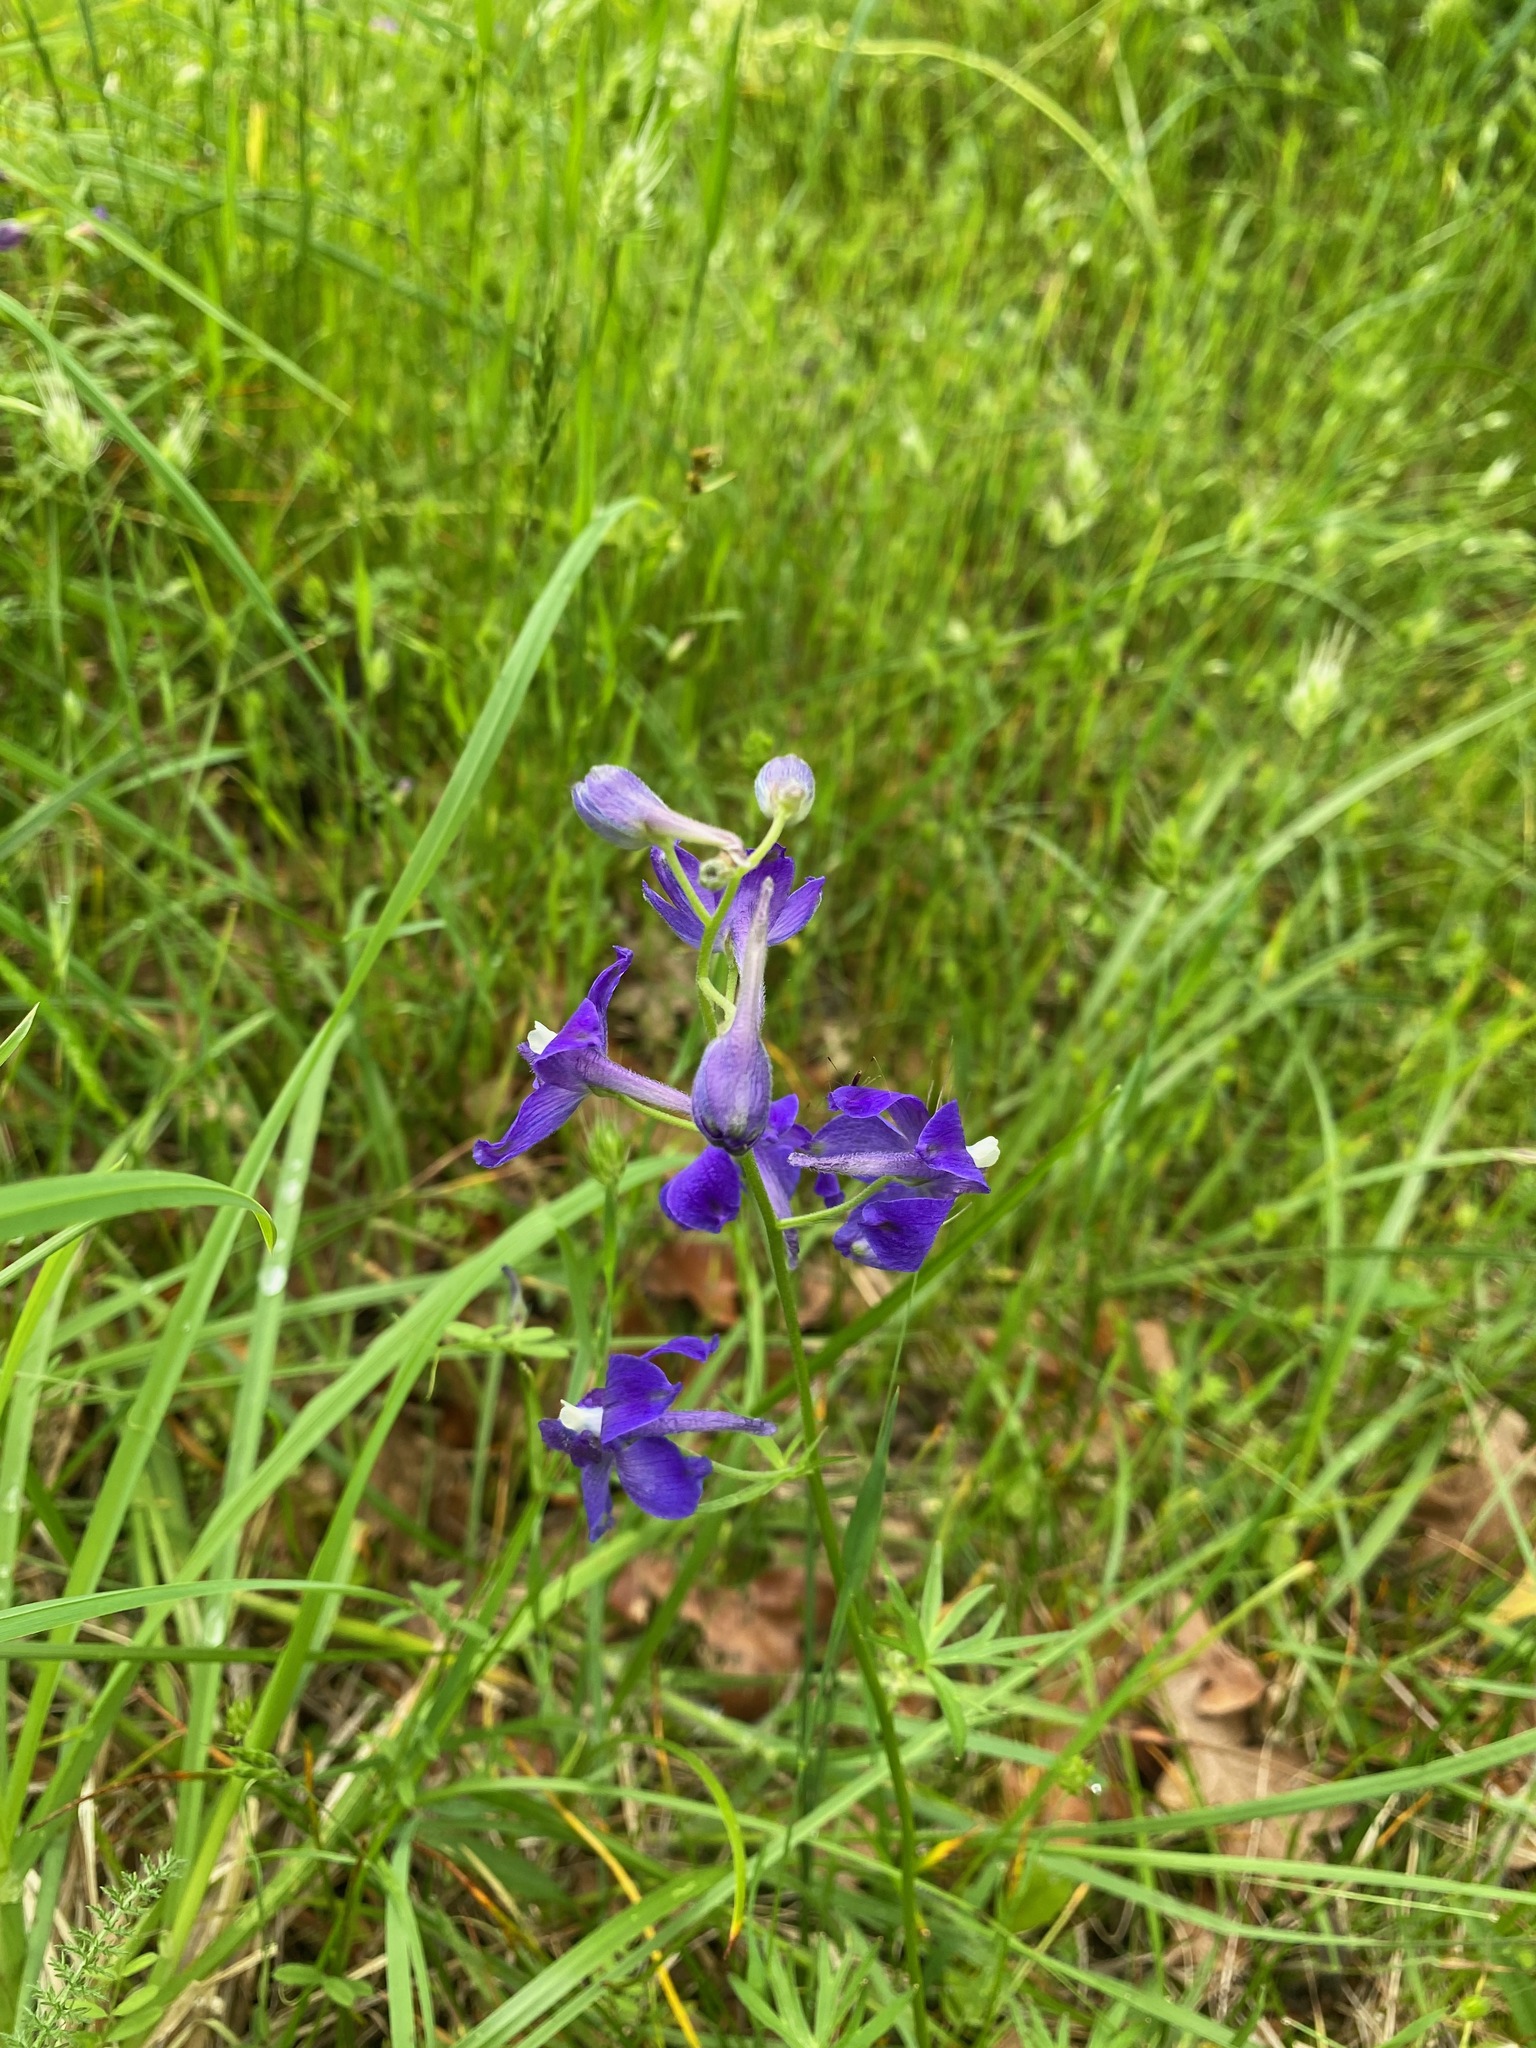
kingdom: Plantae
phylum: Tracheophyta
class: Magnoliopsida
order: Ranunculales
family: Ranunculaceae
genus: Delphinium
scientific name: Delphinium menziesii
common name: Menzies's larkspur
